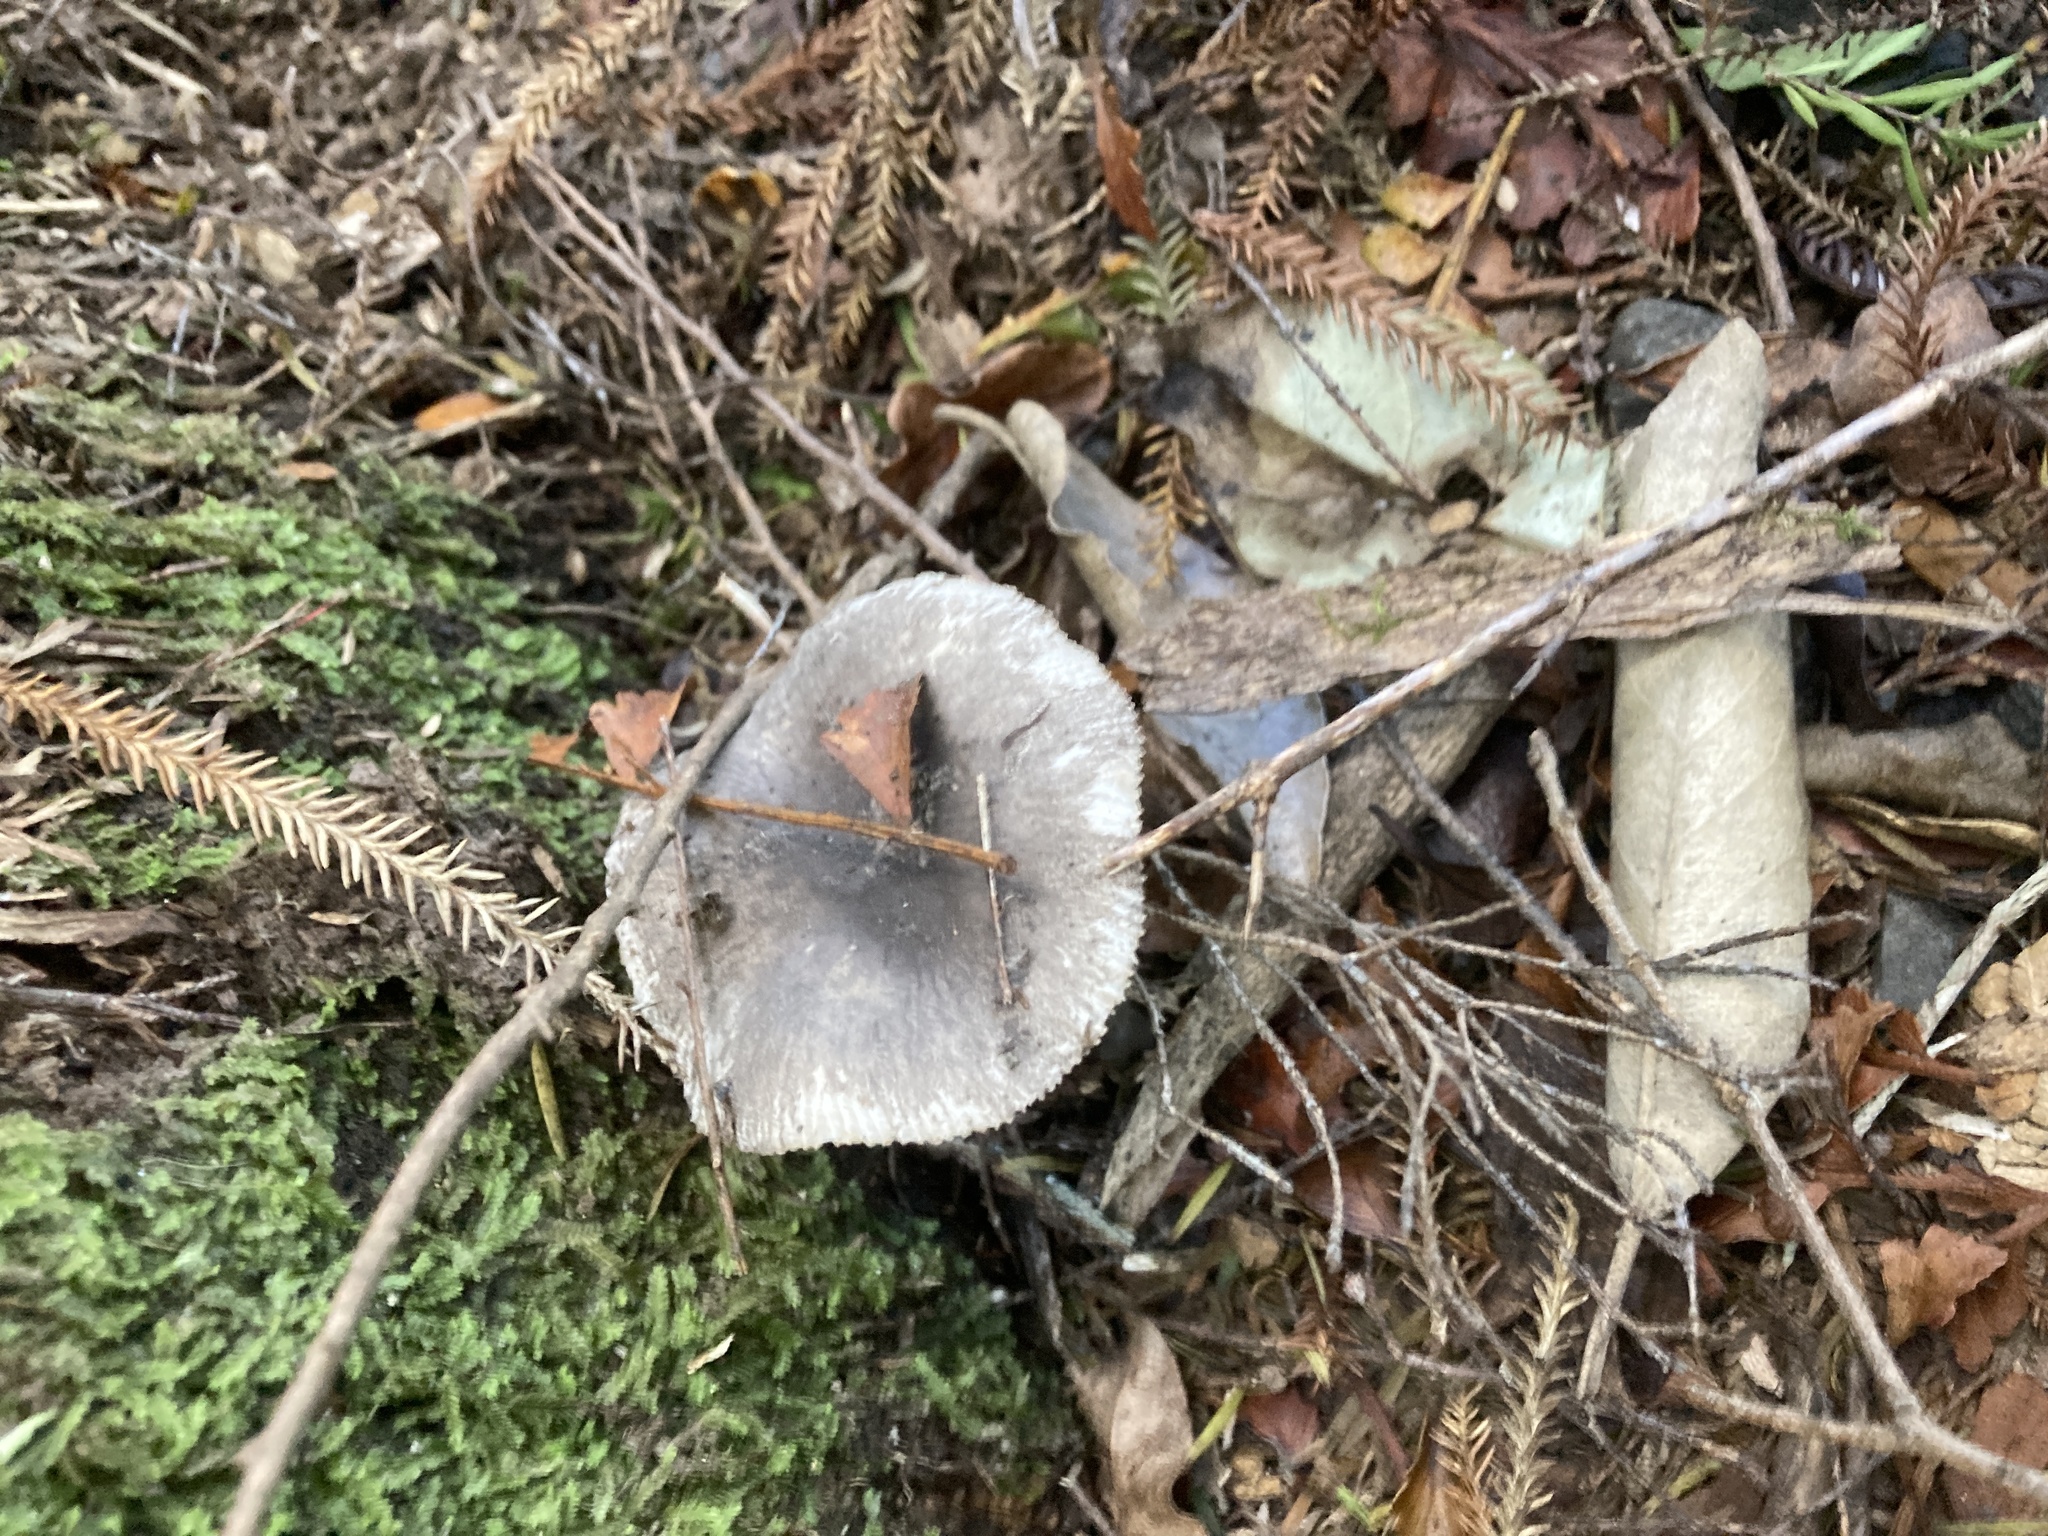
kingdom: Plantae
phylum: Tracheophyta
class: Pinopsida
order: Pinales
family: Podocarpaceae
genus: Dacrydium
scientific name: Dacrydium cupressinum
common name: Red pine
